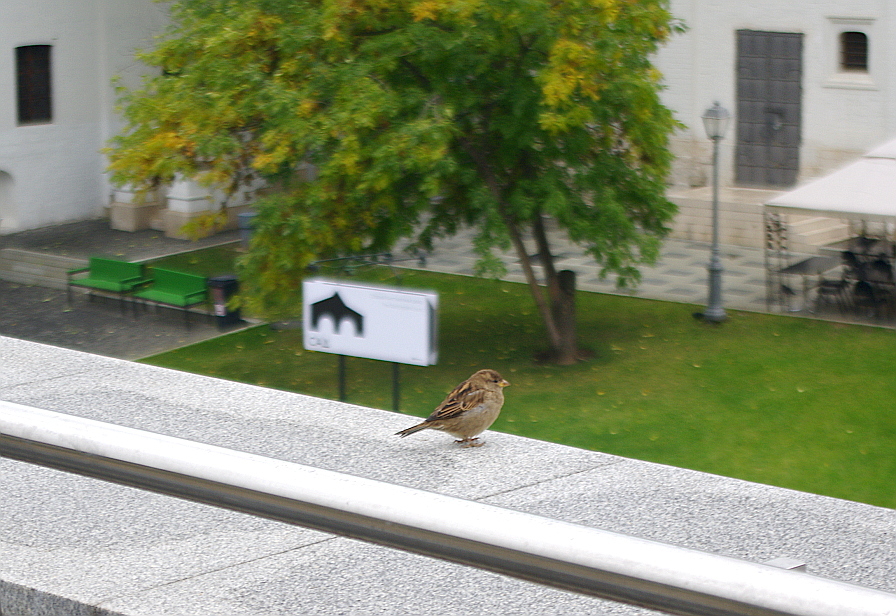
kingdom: Animalia
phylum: Chordata
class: Aves
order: Passeriformes
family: Passeridae
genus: Passer
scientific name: Passer domesticus
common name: House sparrow
